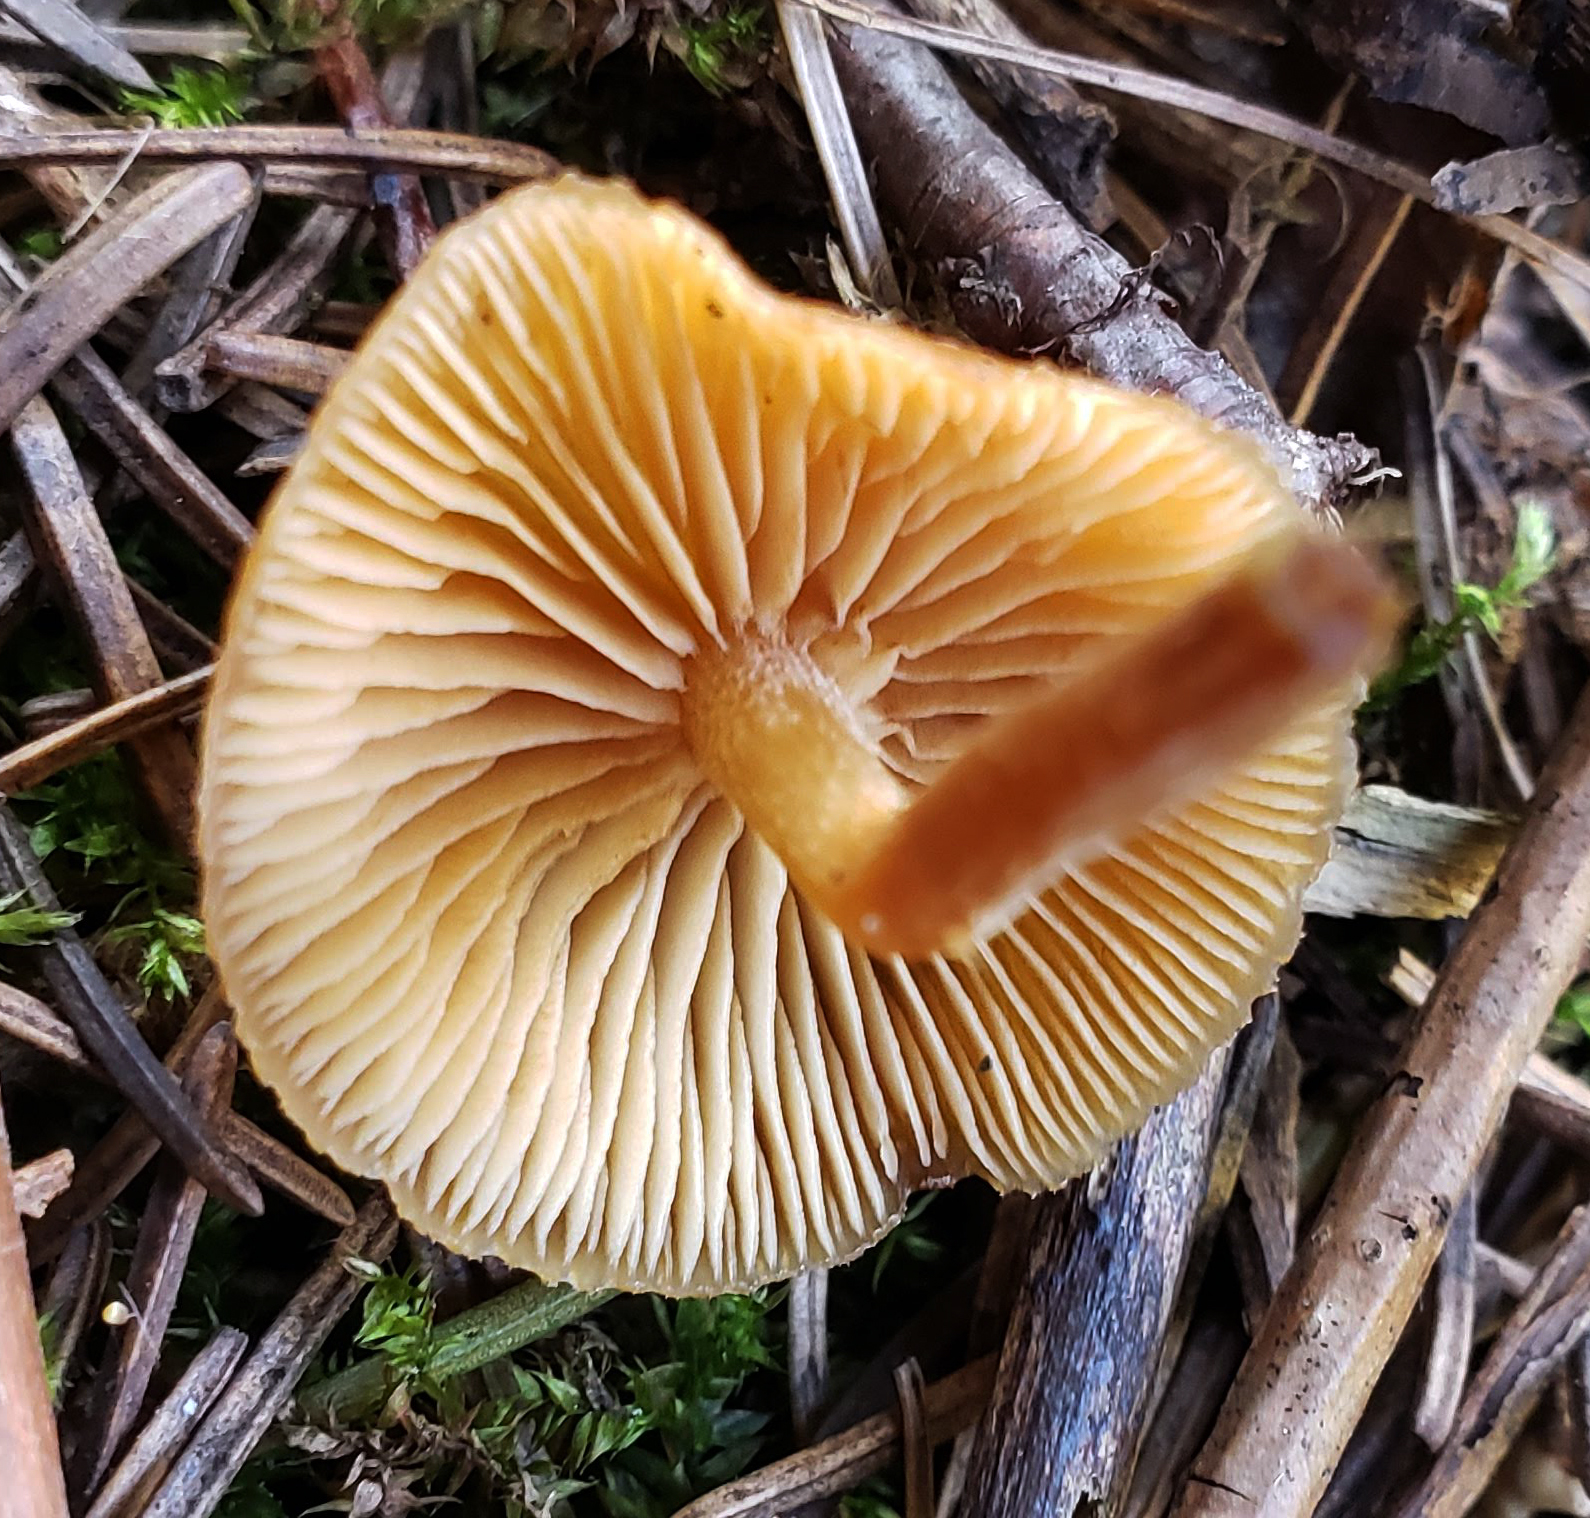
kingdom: Fungi
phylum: Basidiomycota
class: Agaricomycetes
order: Agaricales
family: Tubariaceae
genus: Tubaria
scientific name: Tubaria furfuracea
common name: Scurfy twiglet
